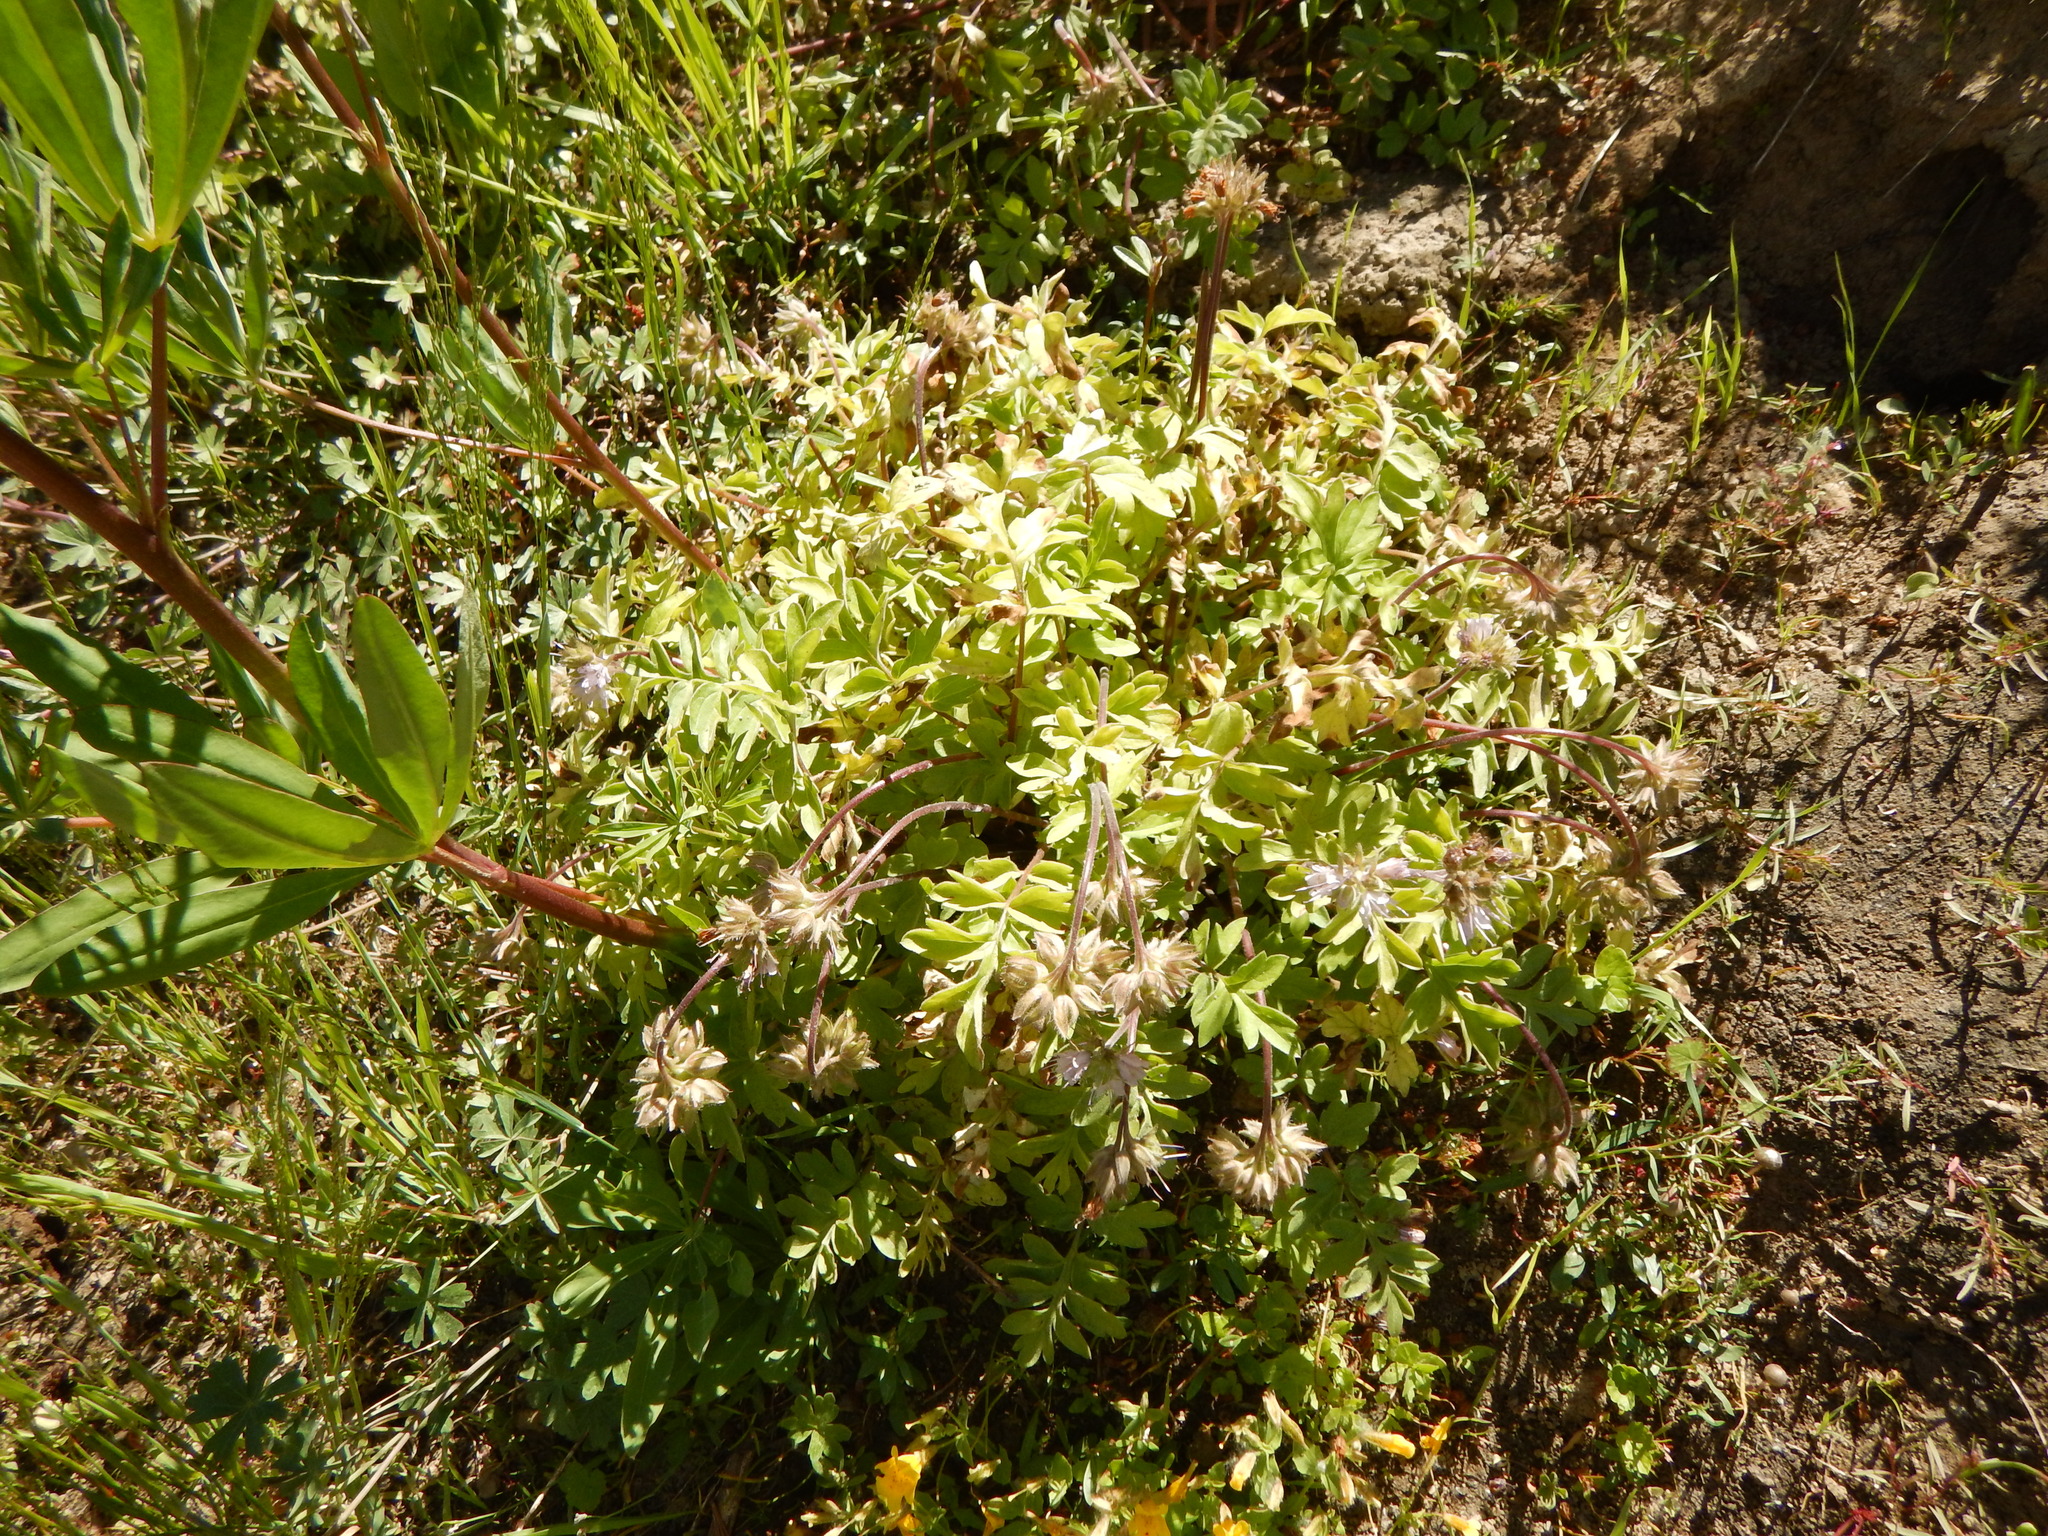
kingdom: Plantae
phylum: Tracheophyta
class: Magnoliopsida
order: Boraginales
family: Hydrophyllaceae
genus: Hydrophyllum
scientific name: Hydrophyllum occidentale
